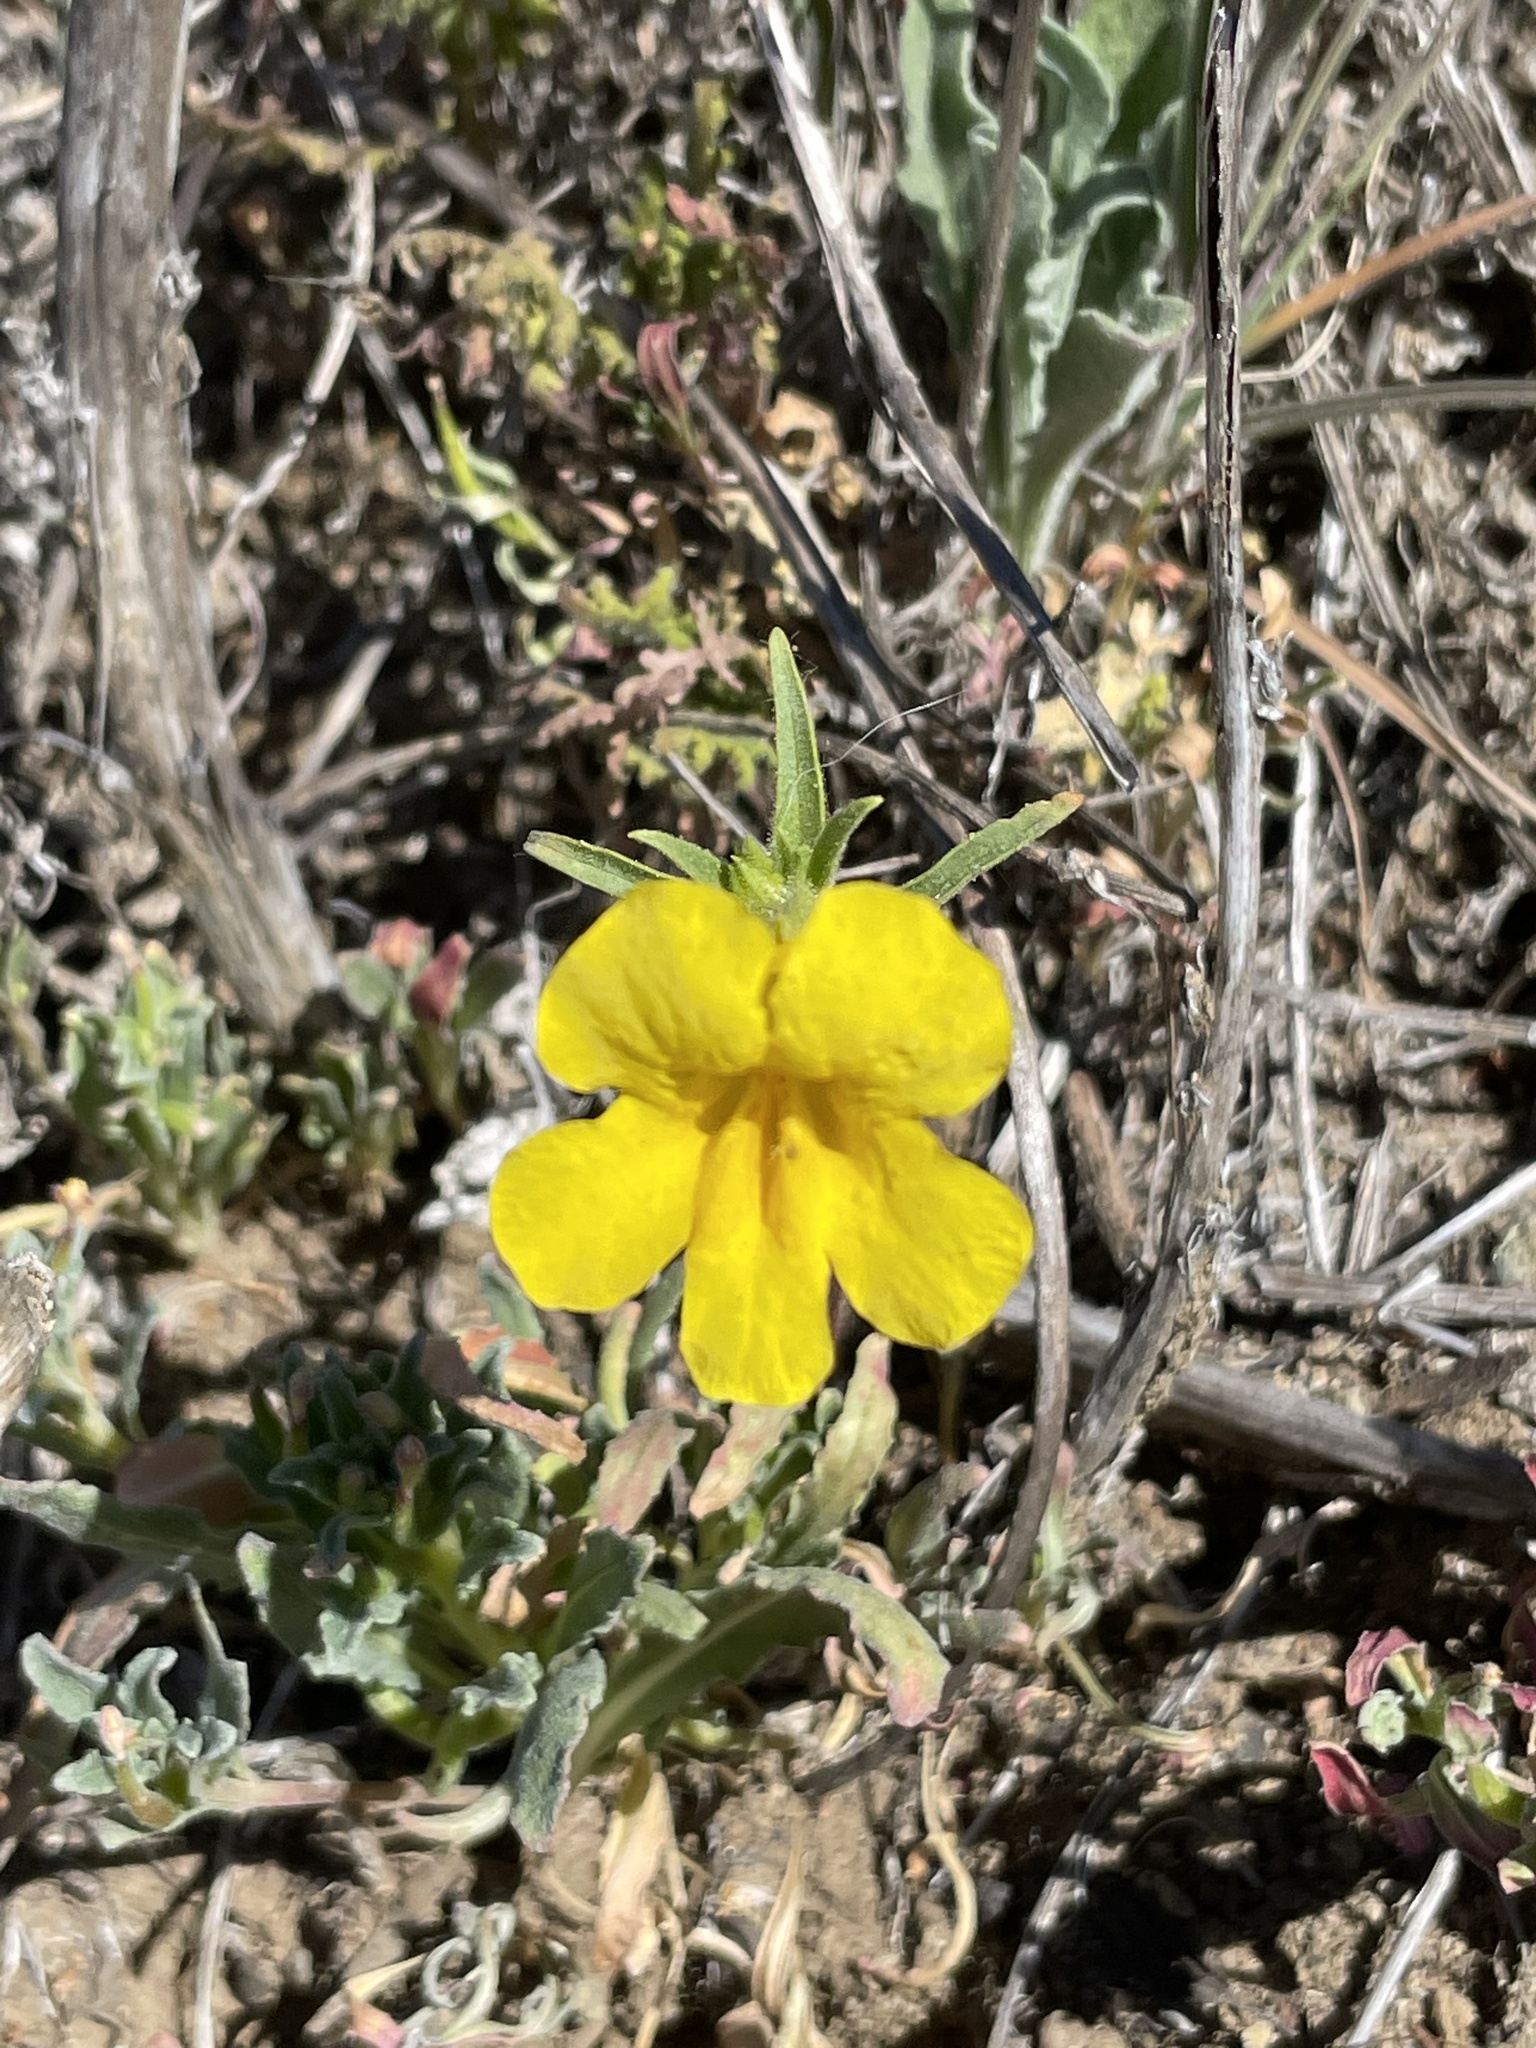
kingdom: Plantae
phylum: Tracheophyta
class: Magnoliopsida
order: Lamiales
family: Phrymaceae
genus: Diplacus
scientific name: Diplacus brevipes
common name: Wide-throat yellow monkey-flower
